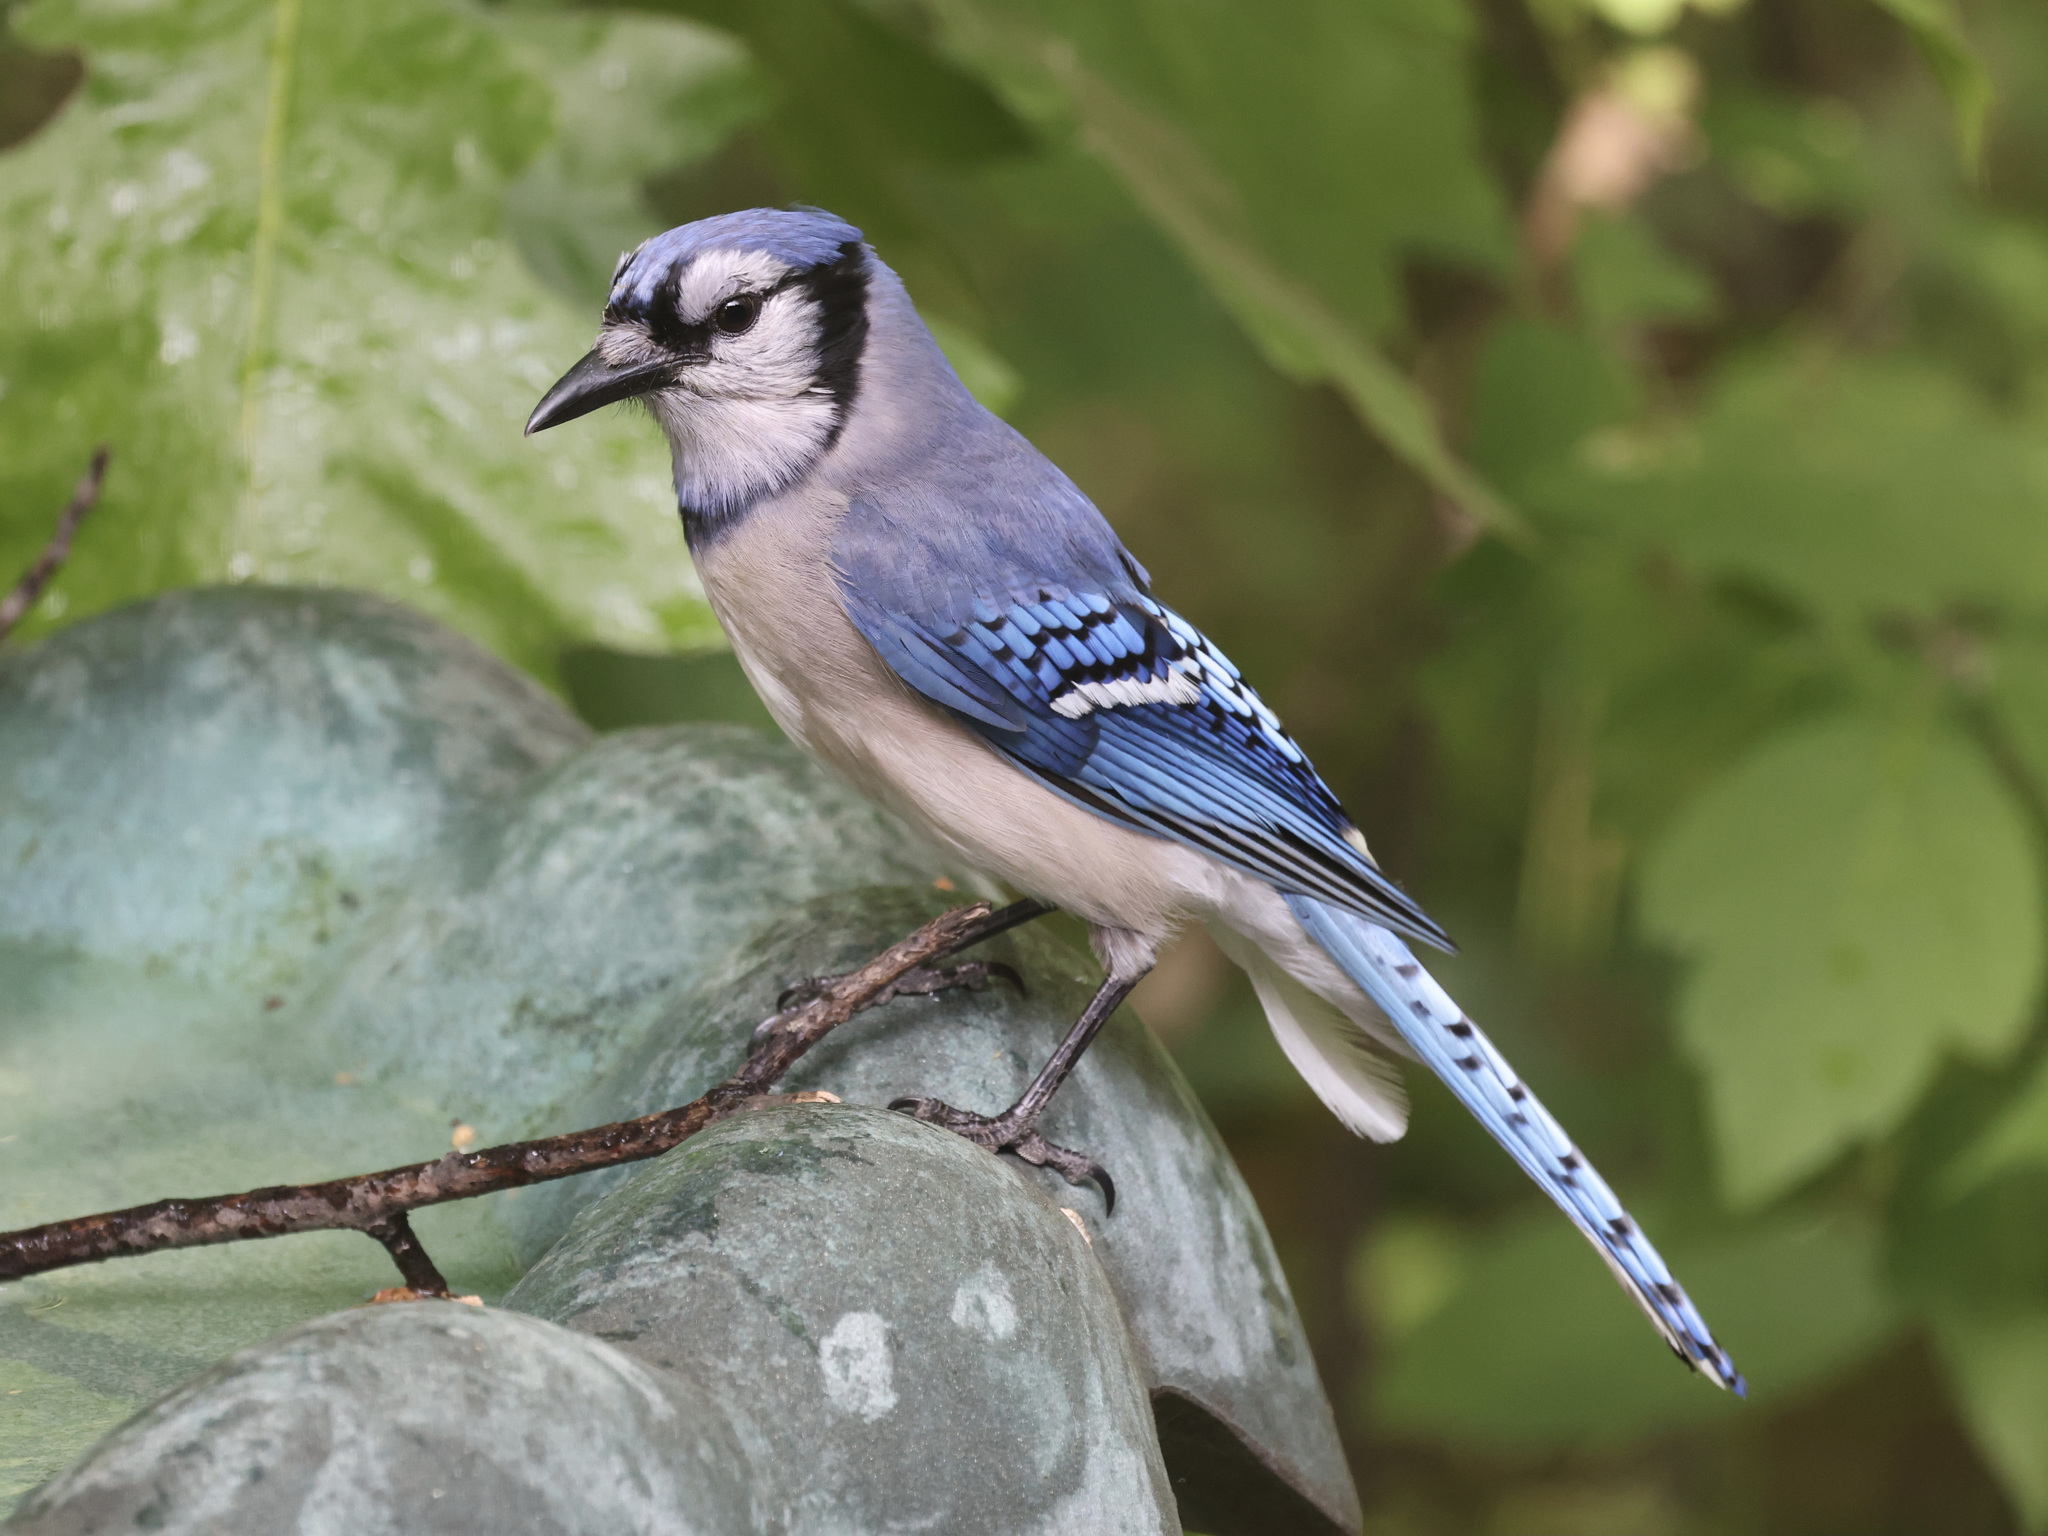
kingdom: Animalia
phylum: Chordata
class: Aves
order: Passeriformes
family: Corvidae
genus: Cyanocitta
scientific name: Cyanocitta cristata
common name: Blue jay
